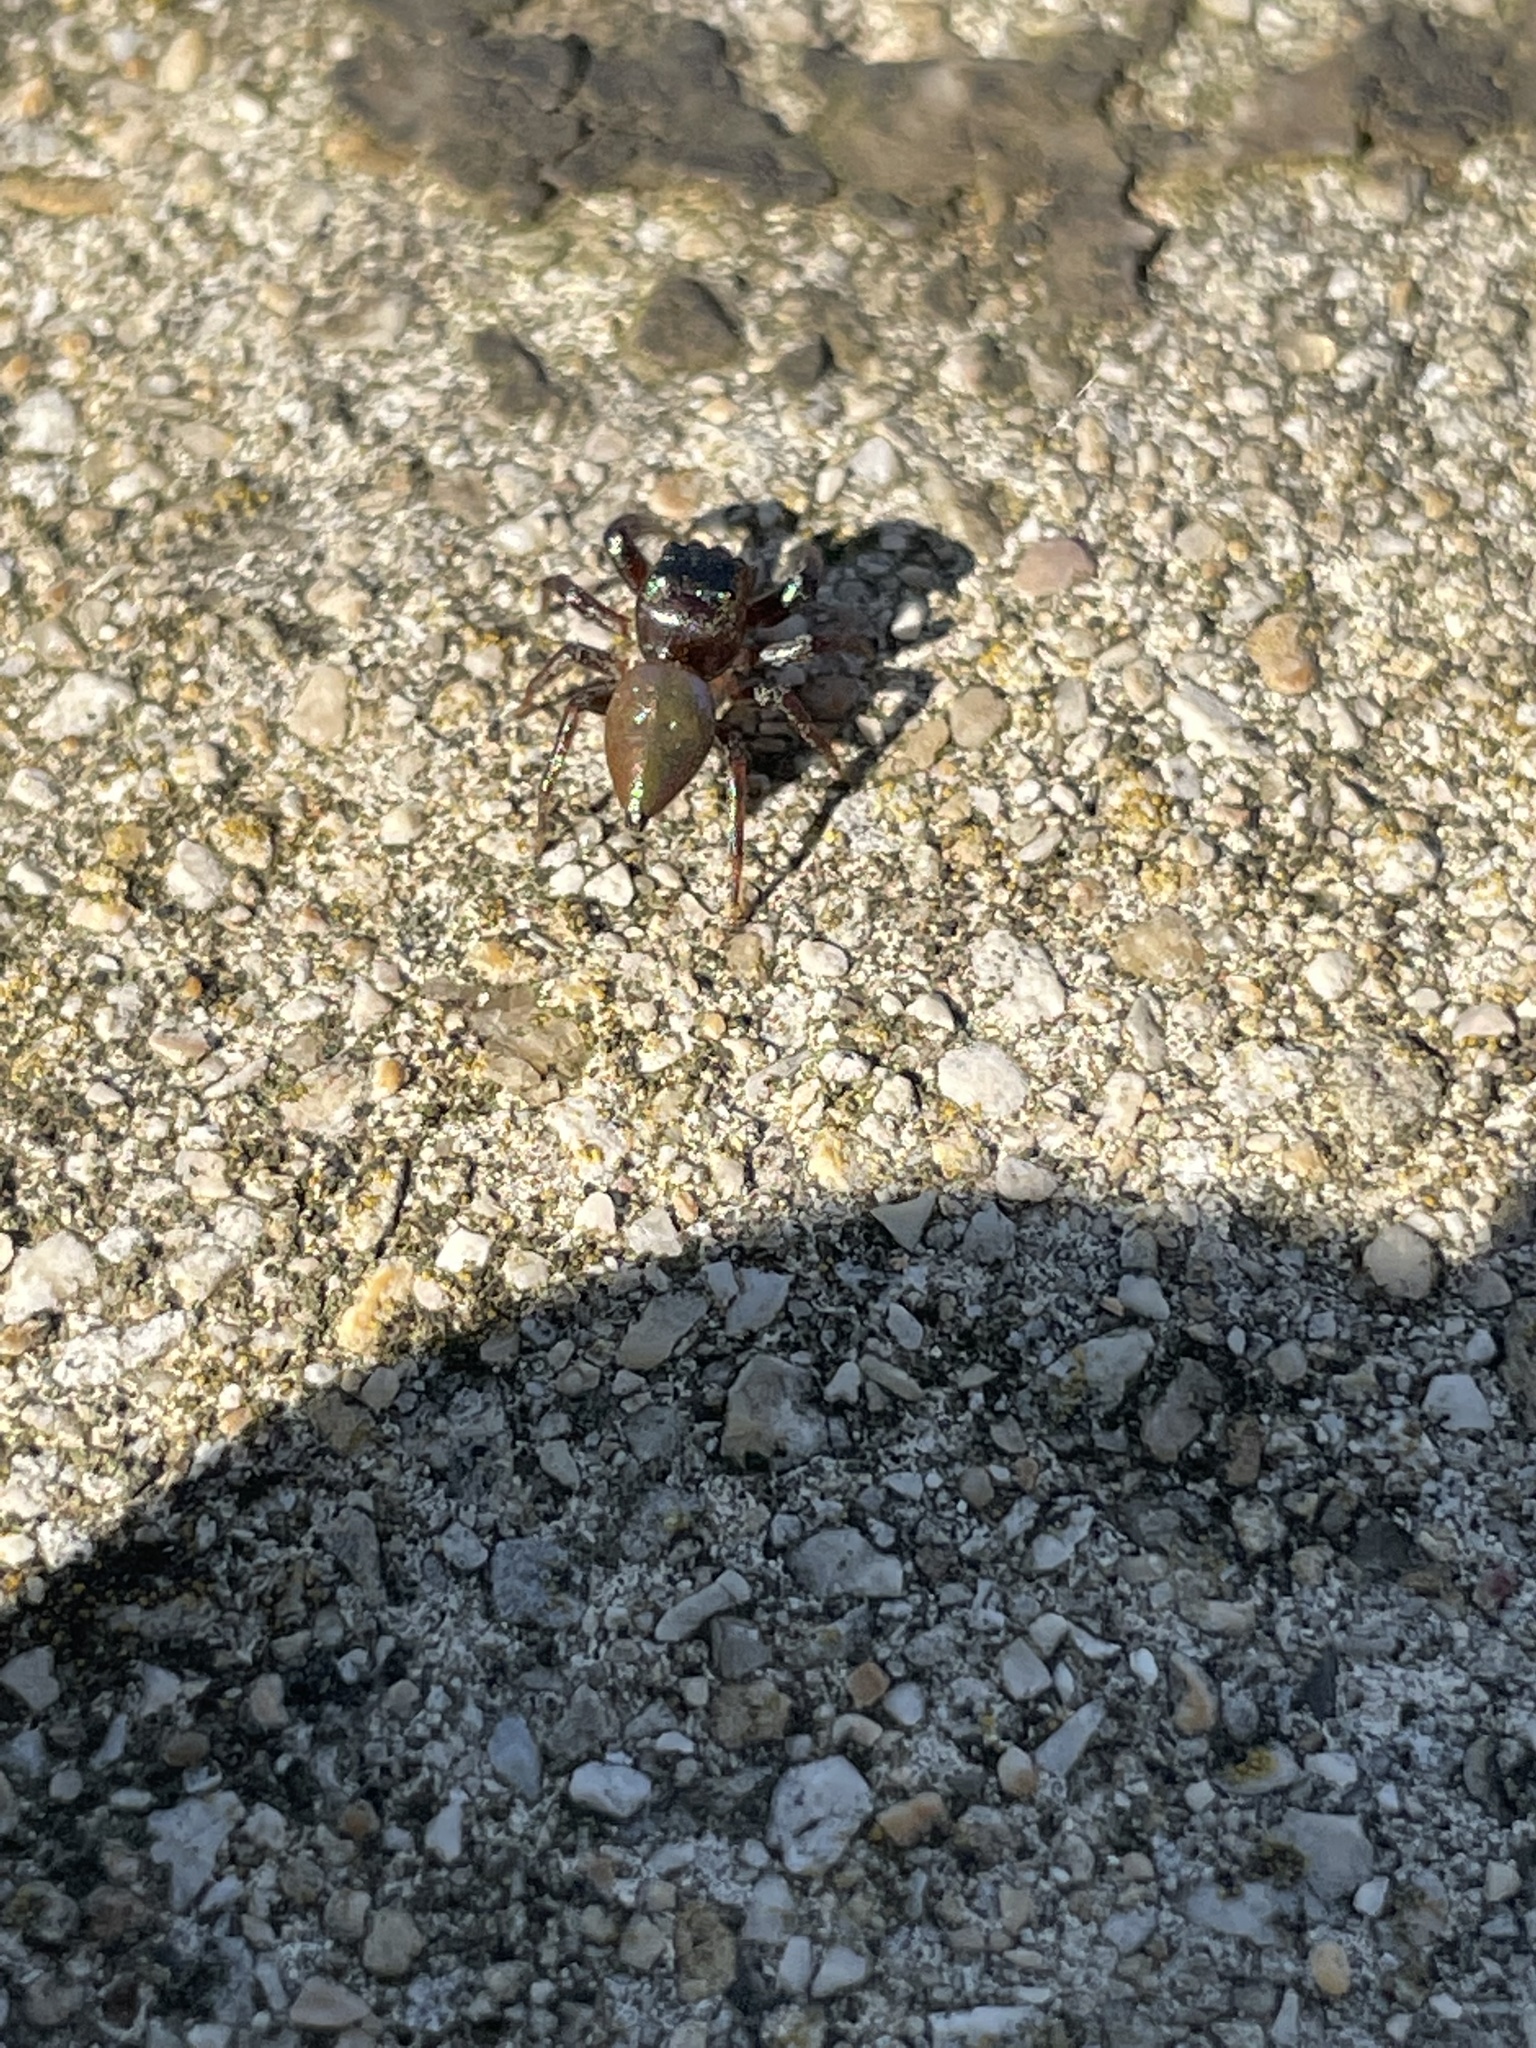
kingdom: Animalia
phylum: Arthropoda
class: Arachnida
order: Araneae
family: Salticidae
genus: Messua
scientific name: Messua limbata
